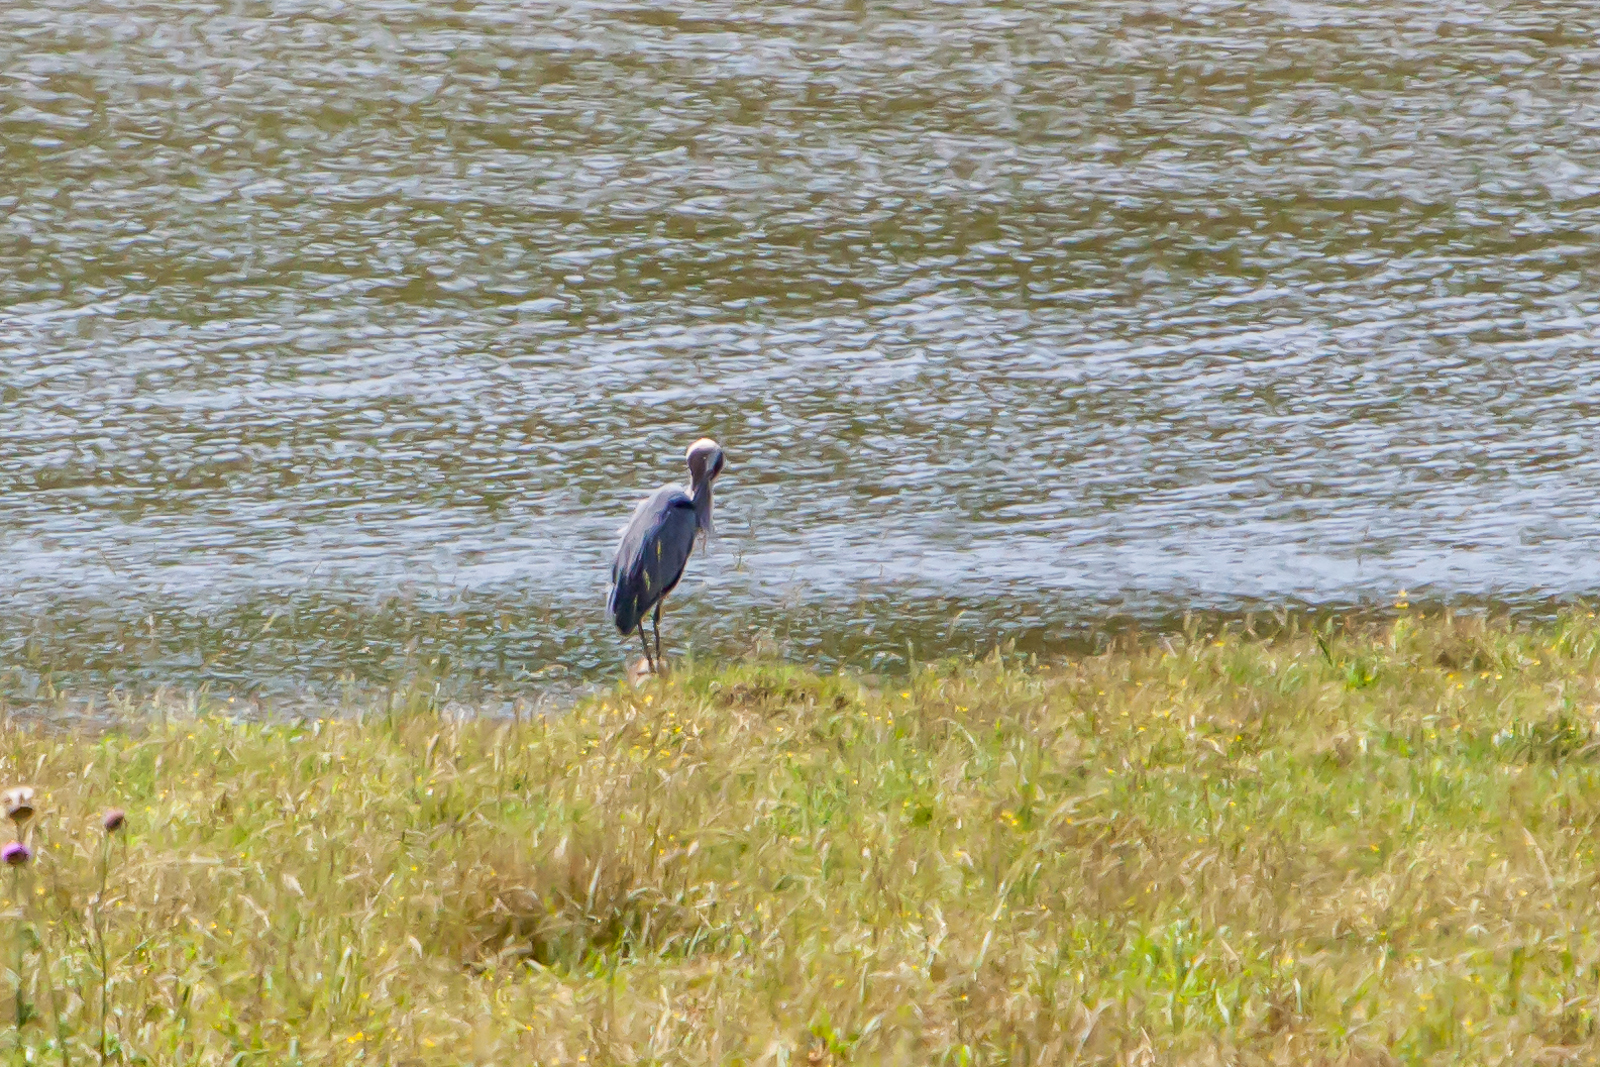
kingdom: Animalia
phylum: Chordata
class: Aves
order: Pelecaniformes
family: Ardeidae
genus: Ardea
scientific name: Ardea herodias
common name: Great blue heron
